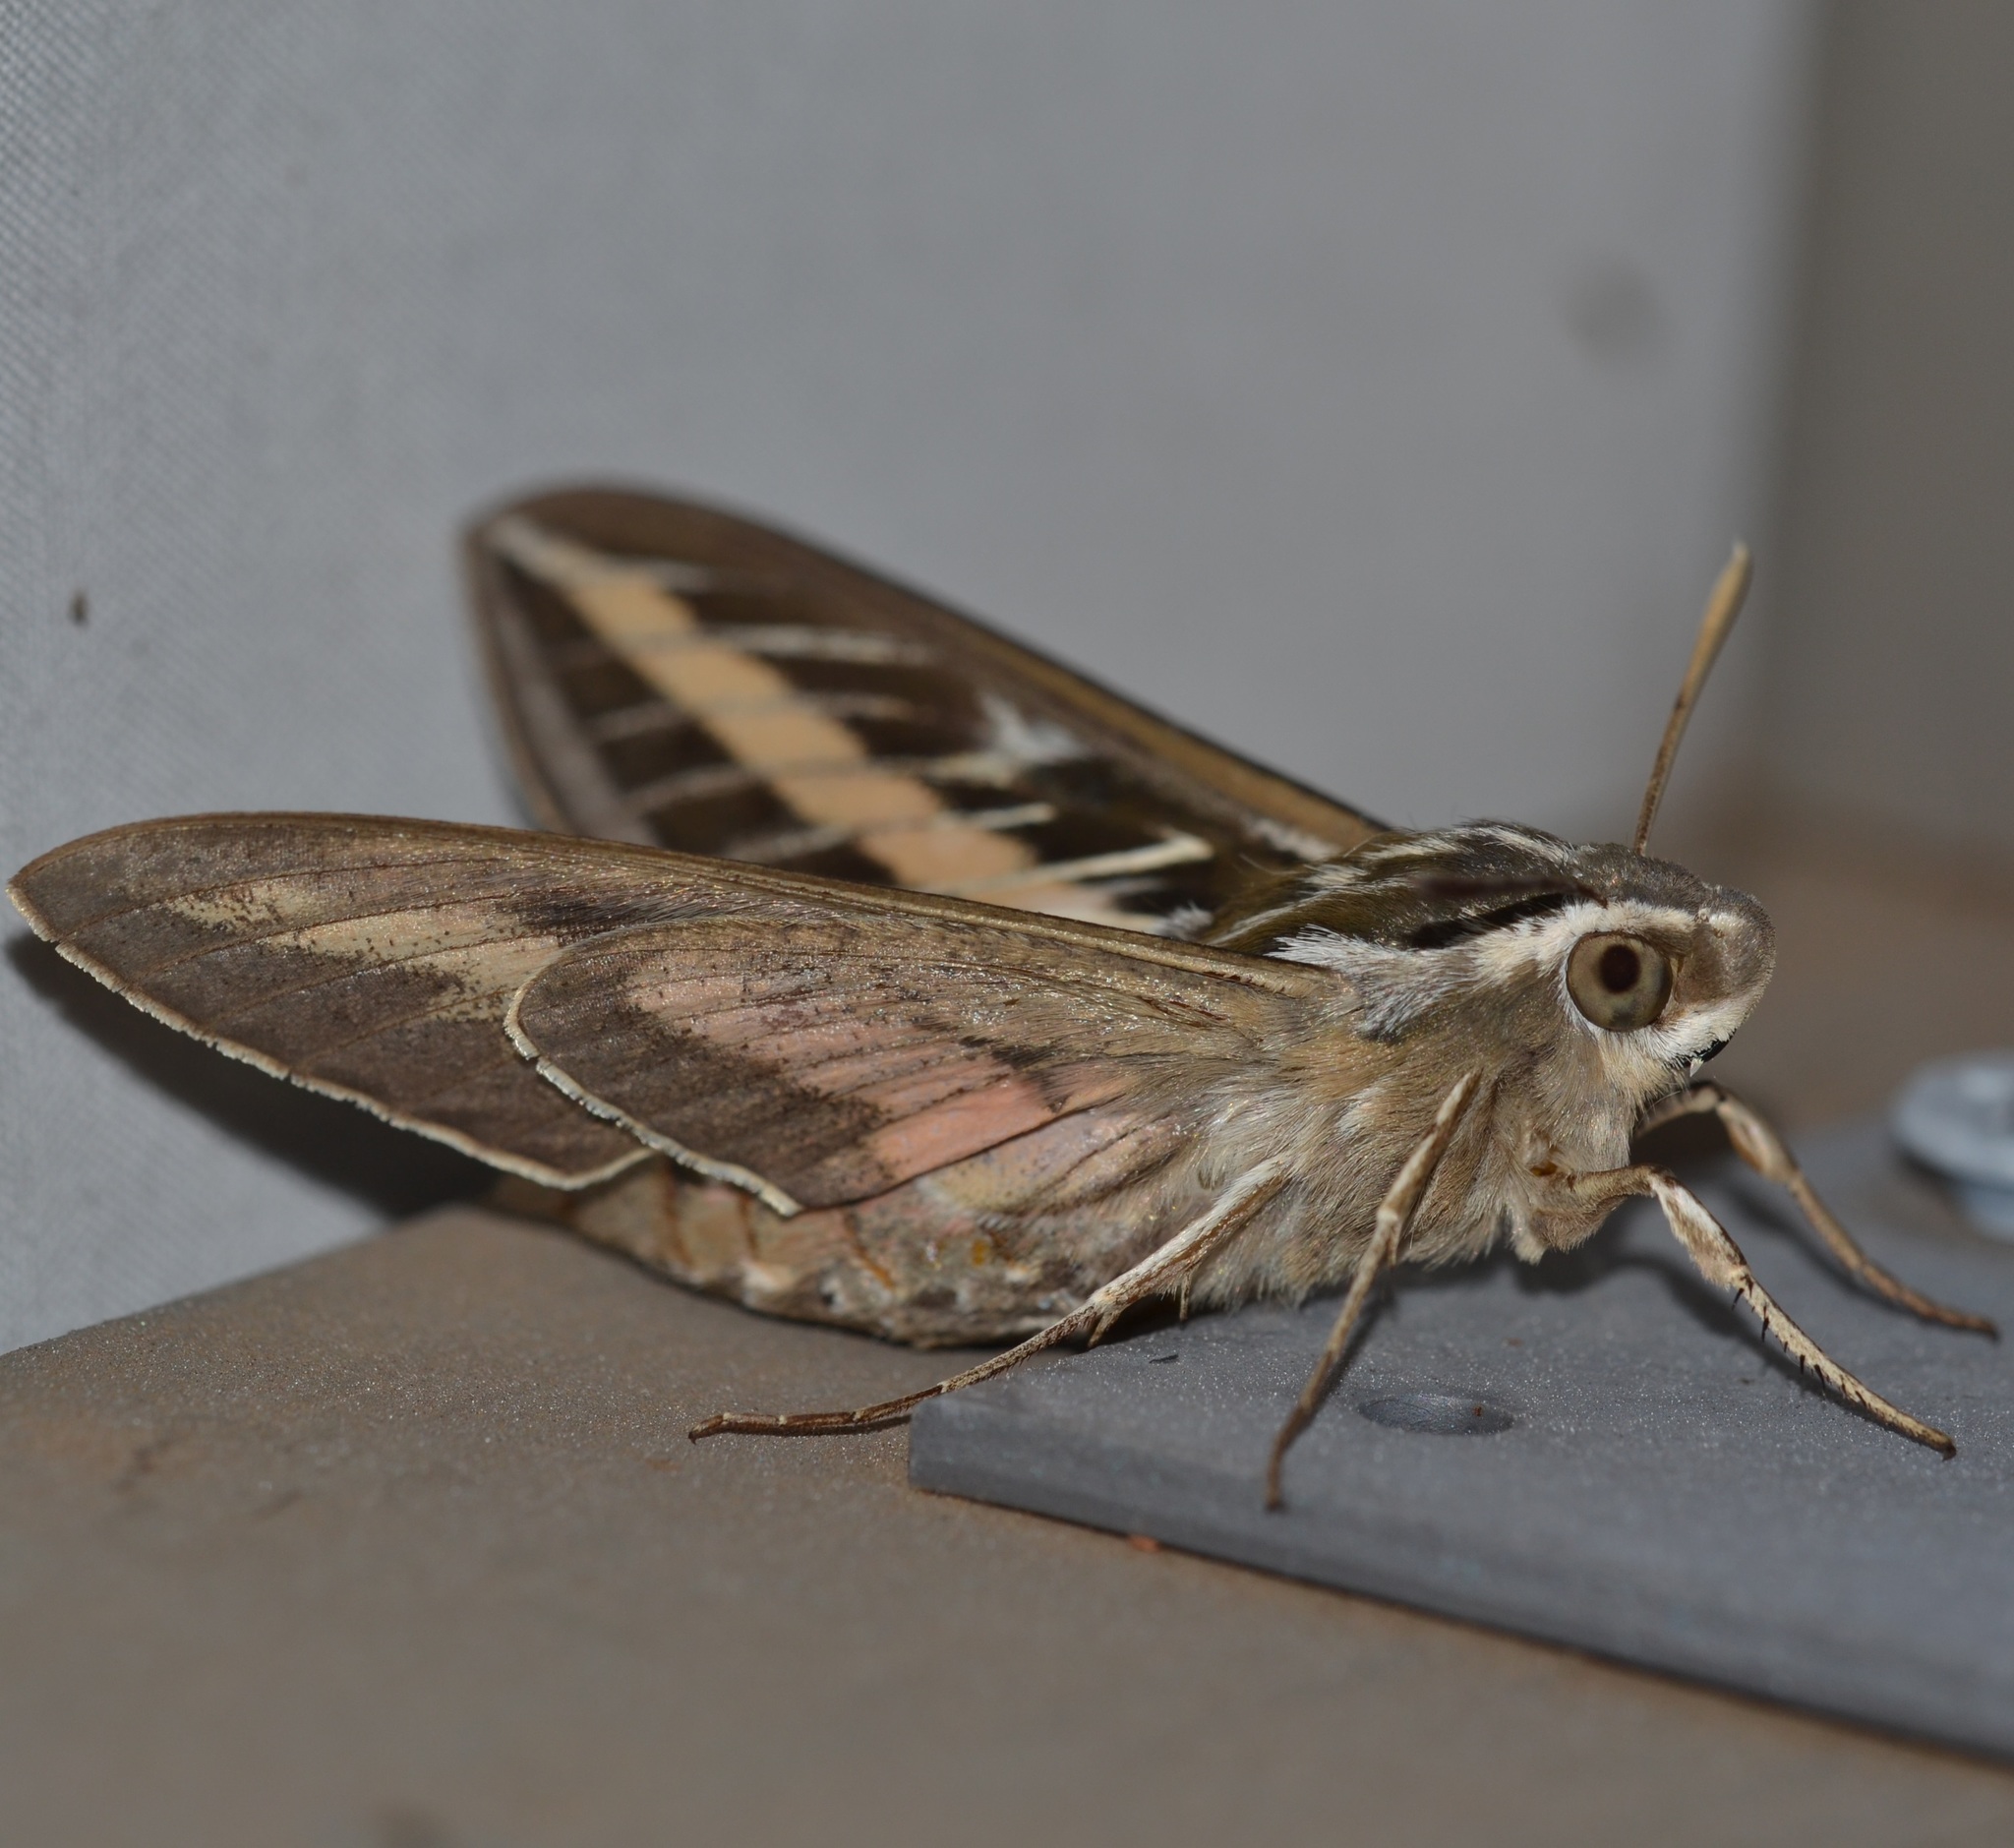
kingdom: Animalia
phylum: Arthropoda
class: Insecta
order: Lepidoptera
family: Sphingidae
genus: Hyles
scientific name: Hyles lineata
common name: White-lined sphinx
